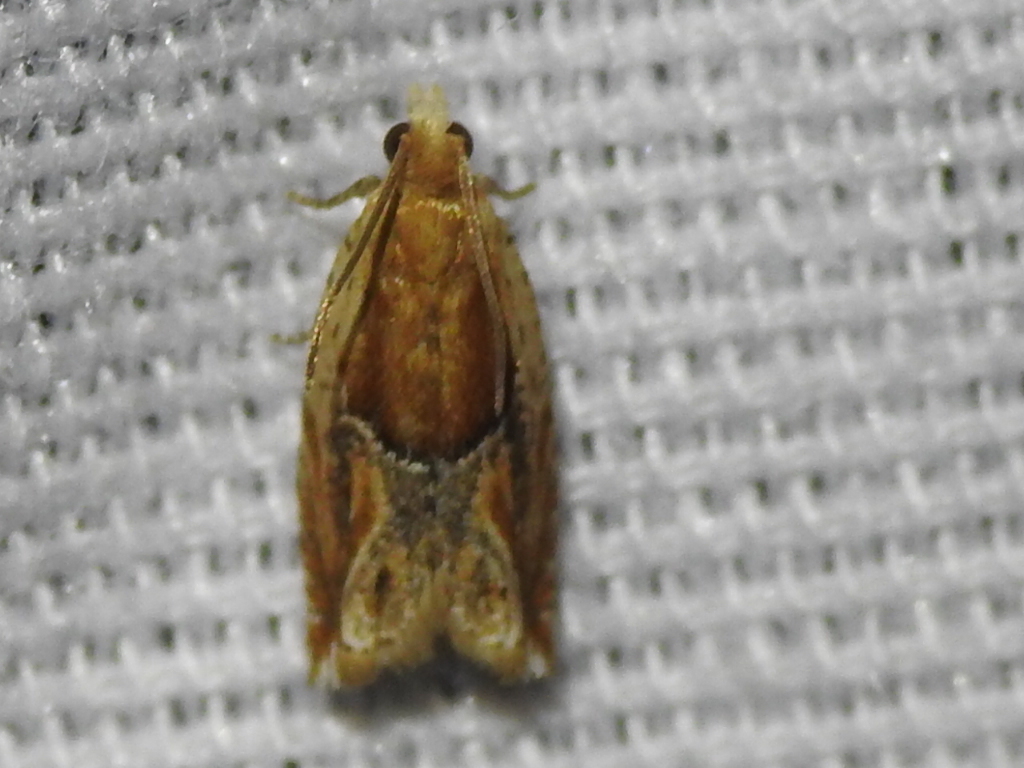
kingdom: Animalia
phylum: Arthropoda
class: Insecta
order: Lepidoptera
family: Tortricidae
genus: Ancylis
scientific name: Ancylis comptana
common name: Little roller
